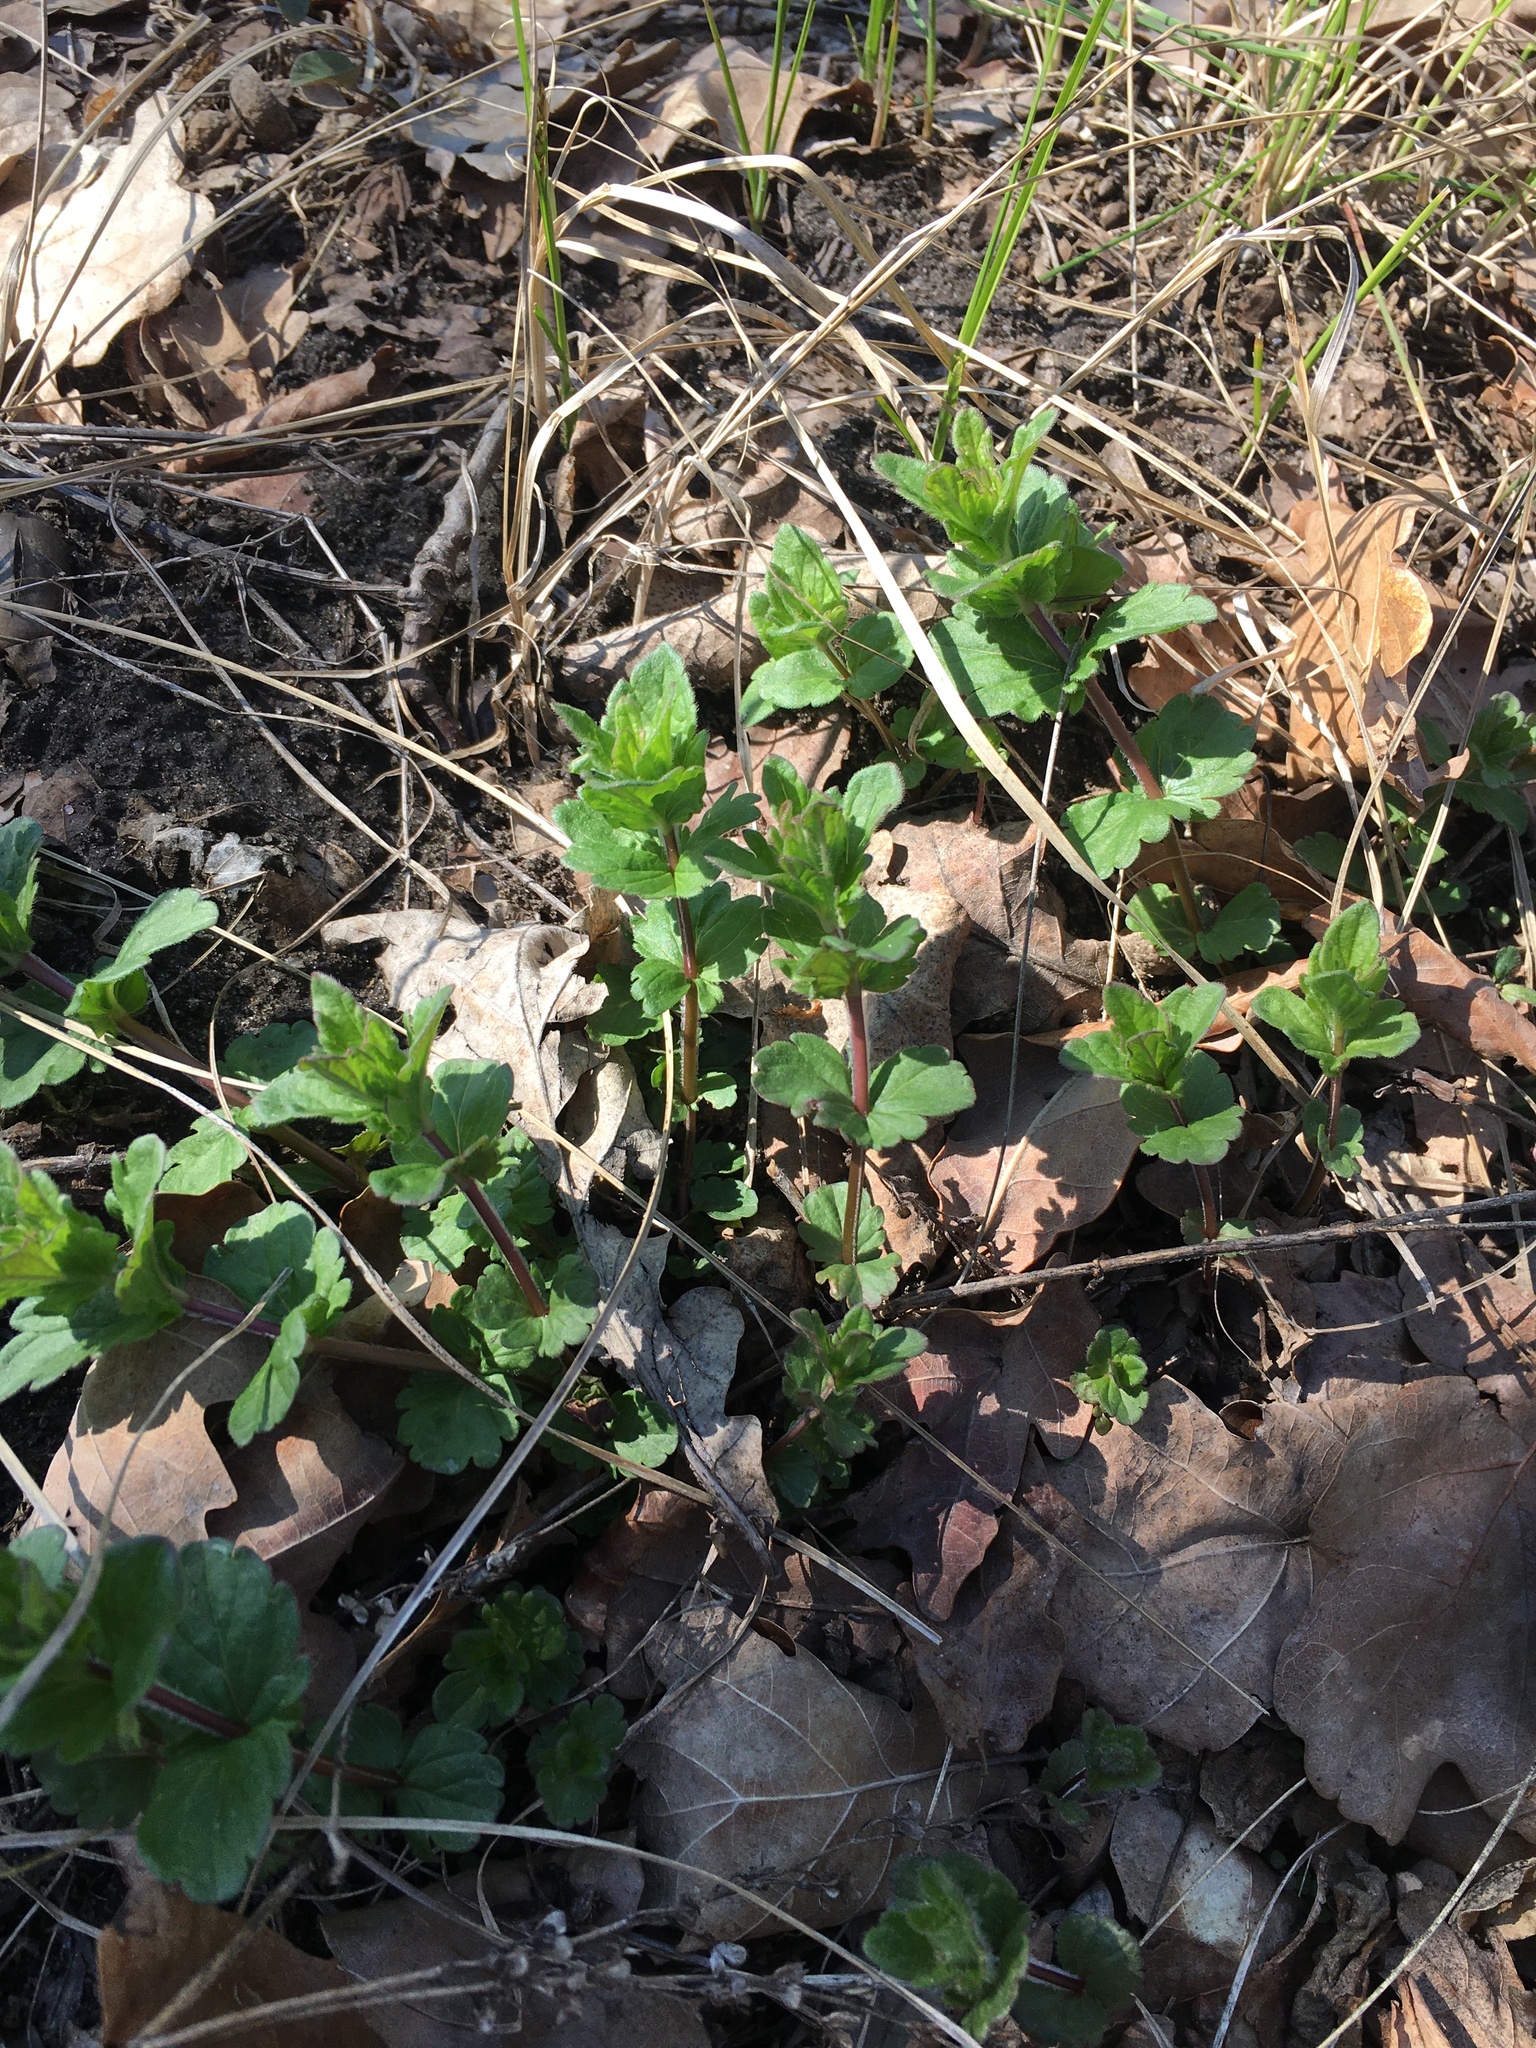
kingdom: Plantae
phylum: Tracheophyta
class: Magnoliopsida
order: Lamiales
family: Plantaginaceae
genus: Veronica
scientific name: Veronica chamaedrys
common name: Germander speedwell
